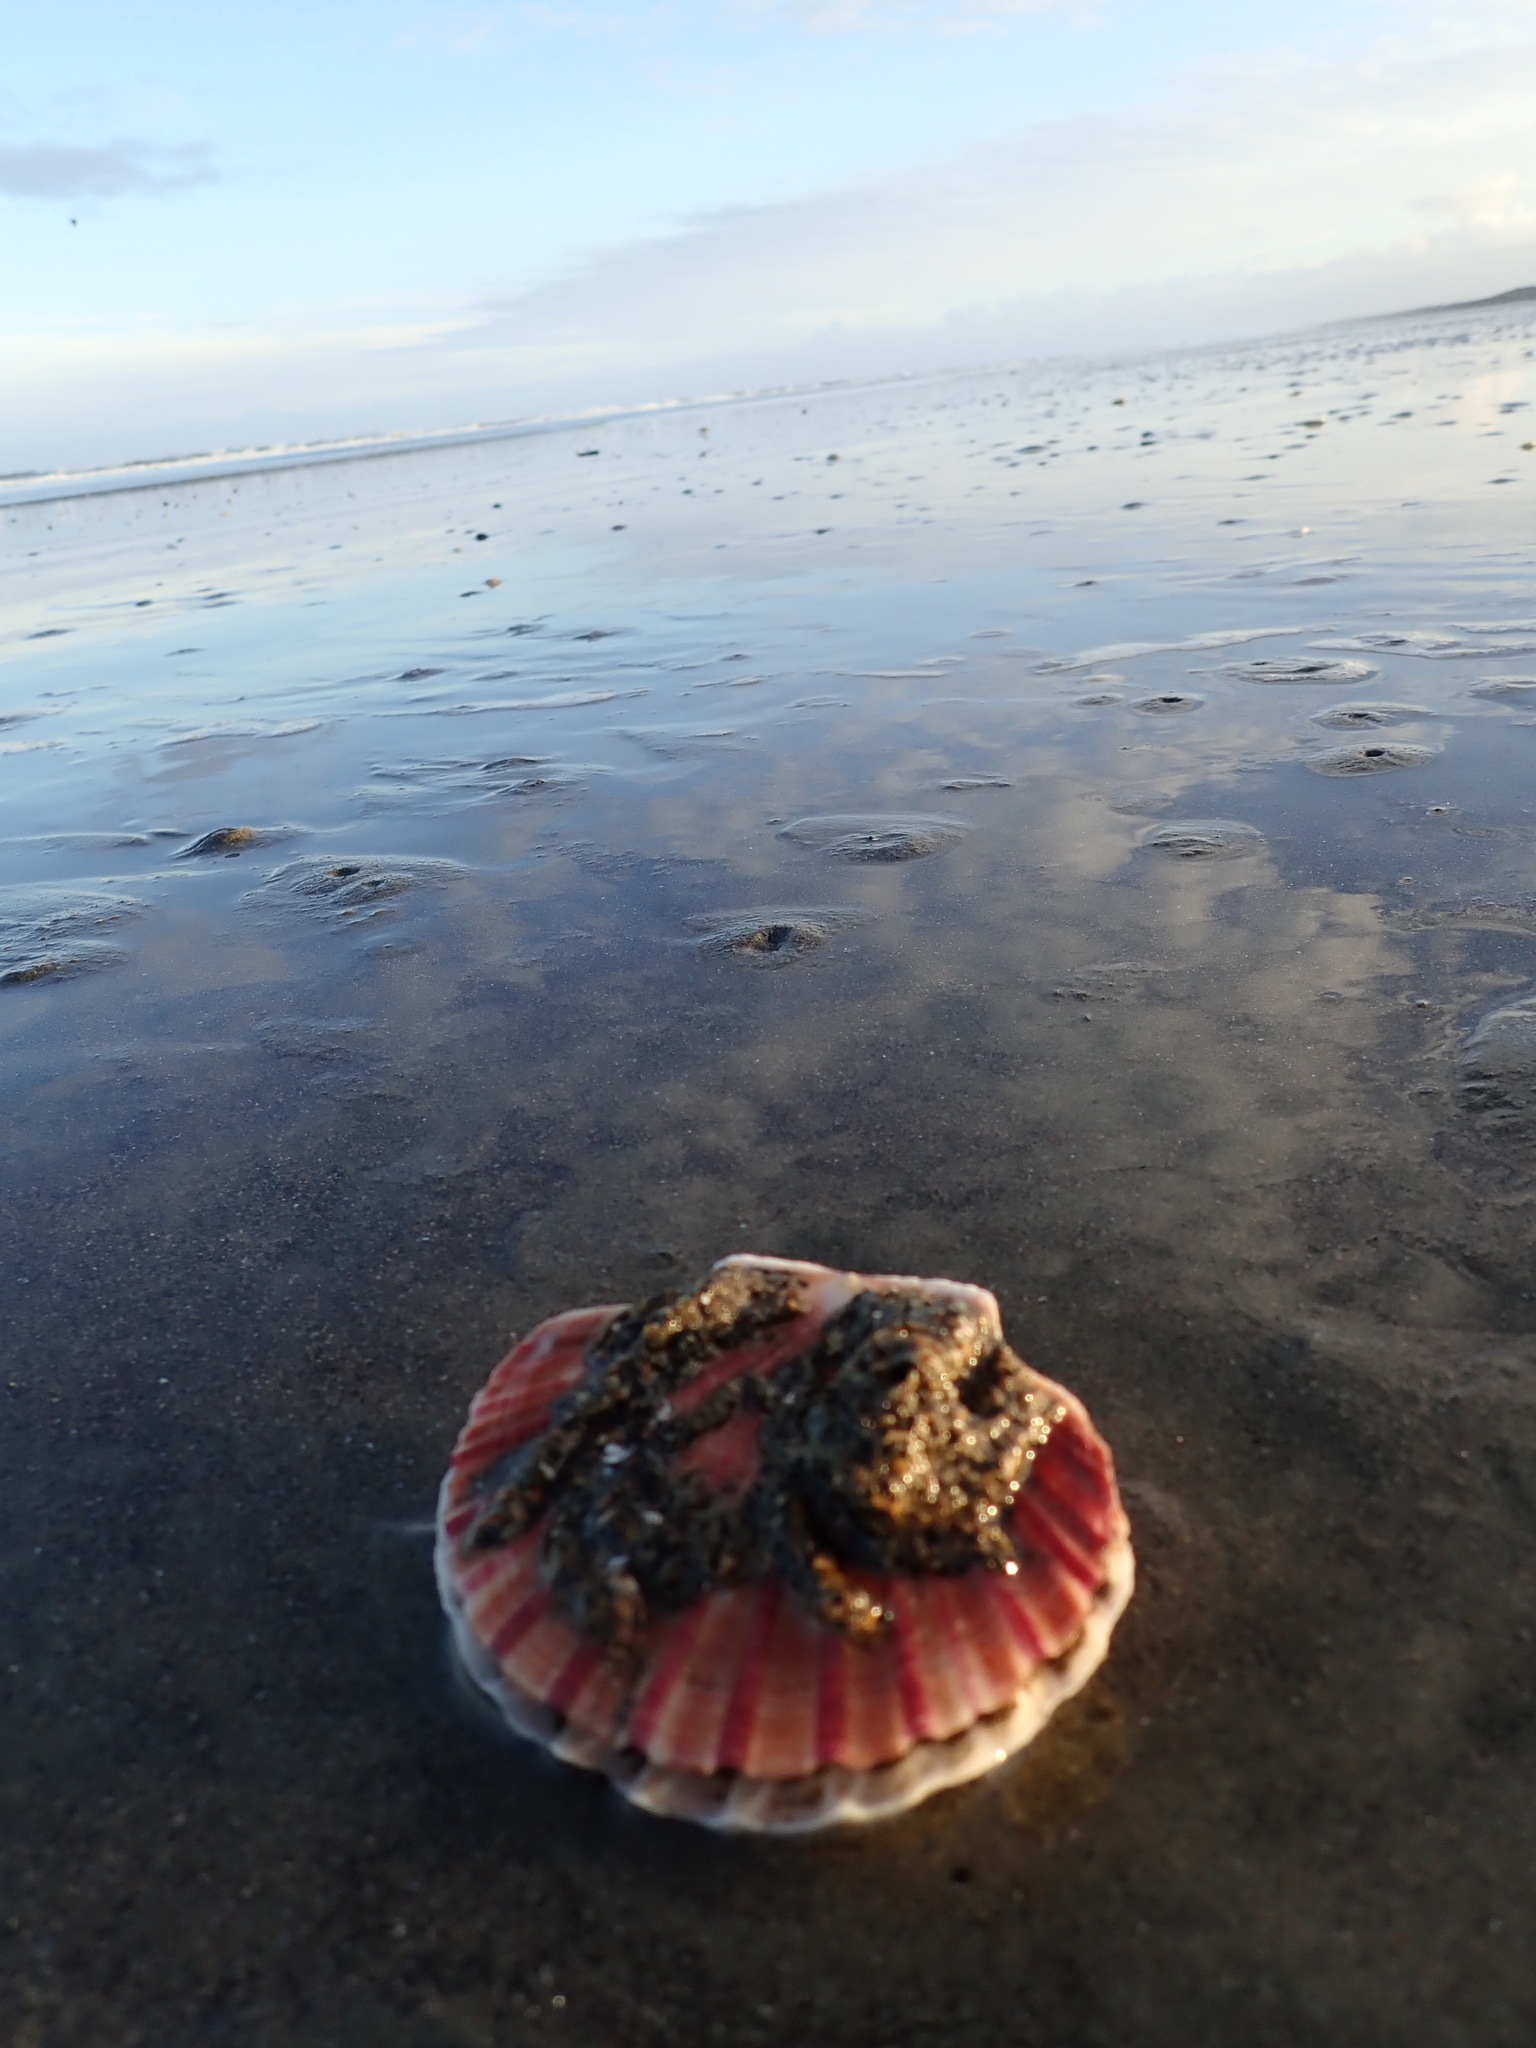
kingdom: Animalia
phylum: Mollusca
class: Bivalvia
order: Pectinida
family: Pectinidae
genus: Pecten
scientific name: Pecten novaezelandiae
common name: New zealand scallop
